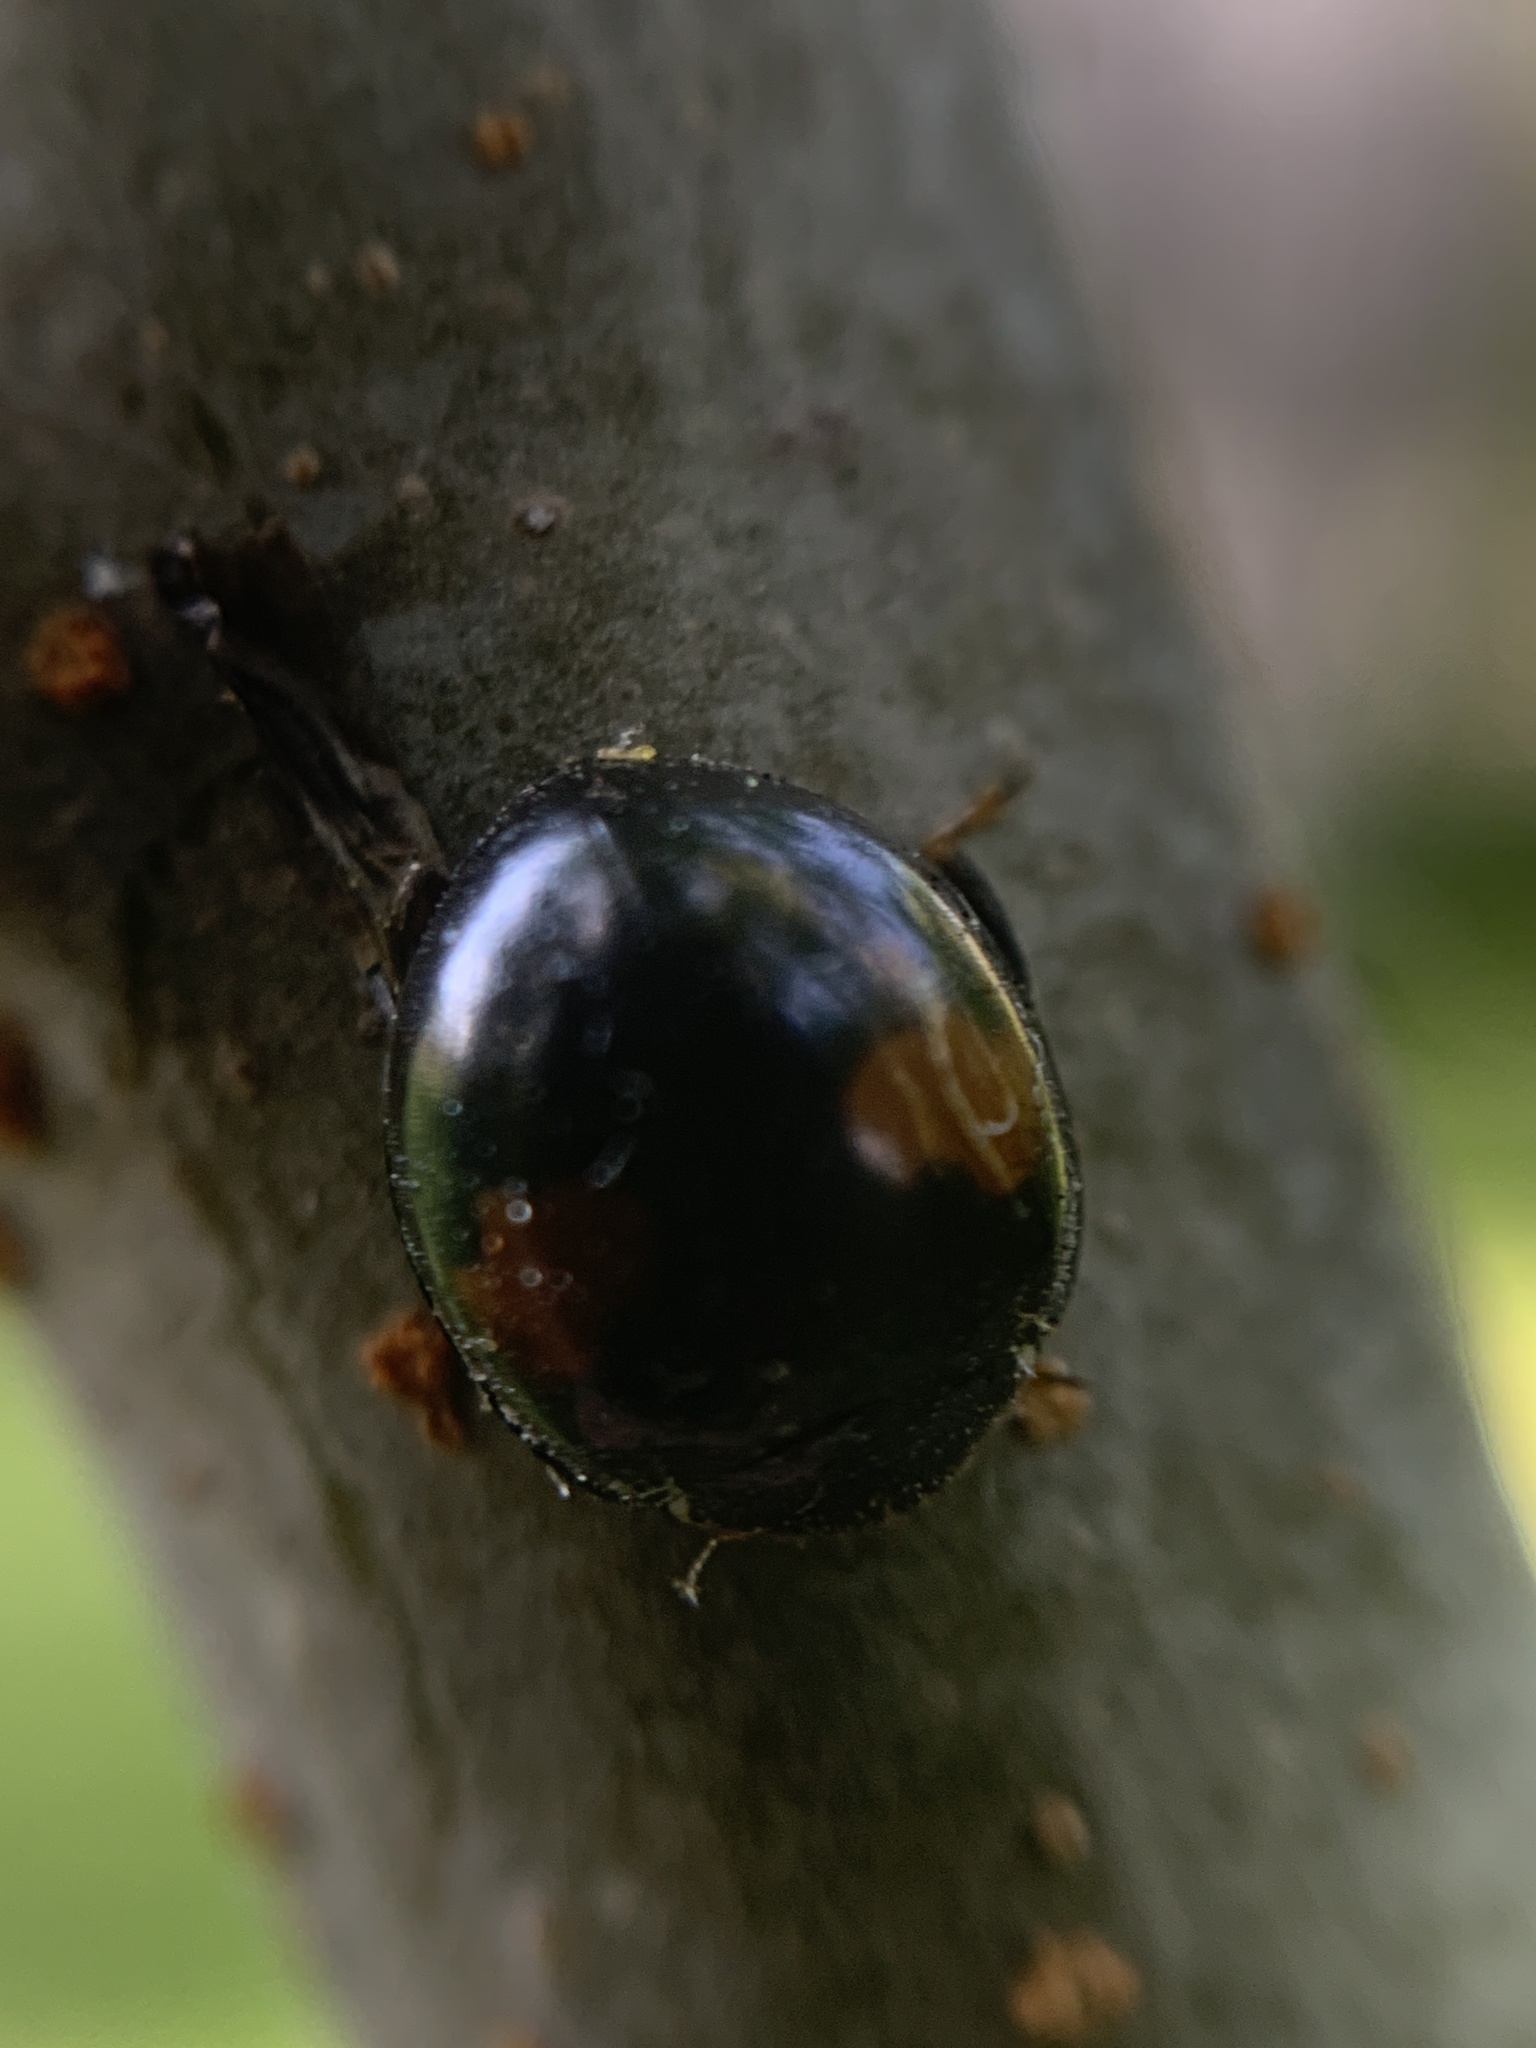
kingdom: Animalia
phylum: Arthropoda
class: Insecta
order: Coleoptera
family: Coccinellidae
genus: Olla
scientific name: Olla v-nigrum
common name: Ashy gray lady beetle
